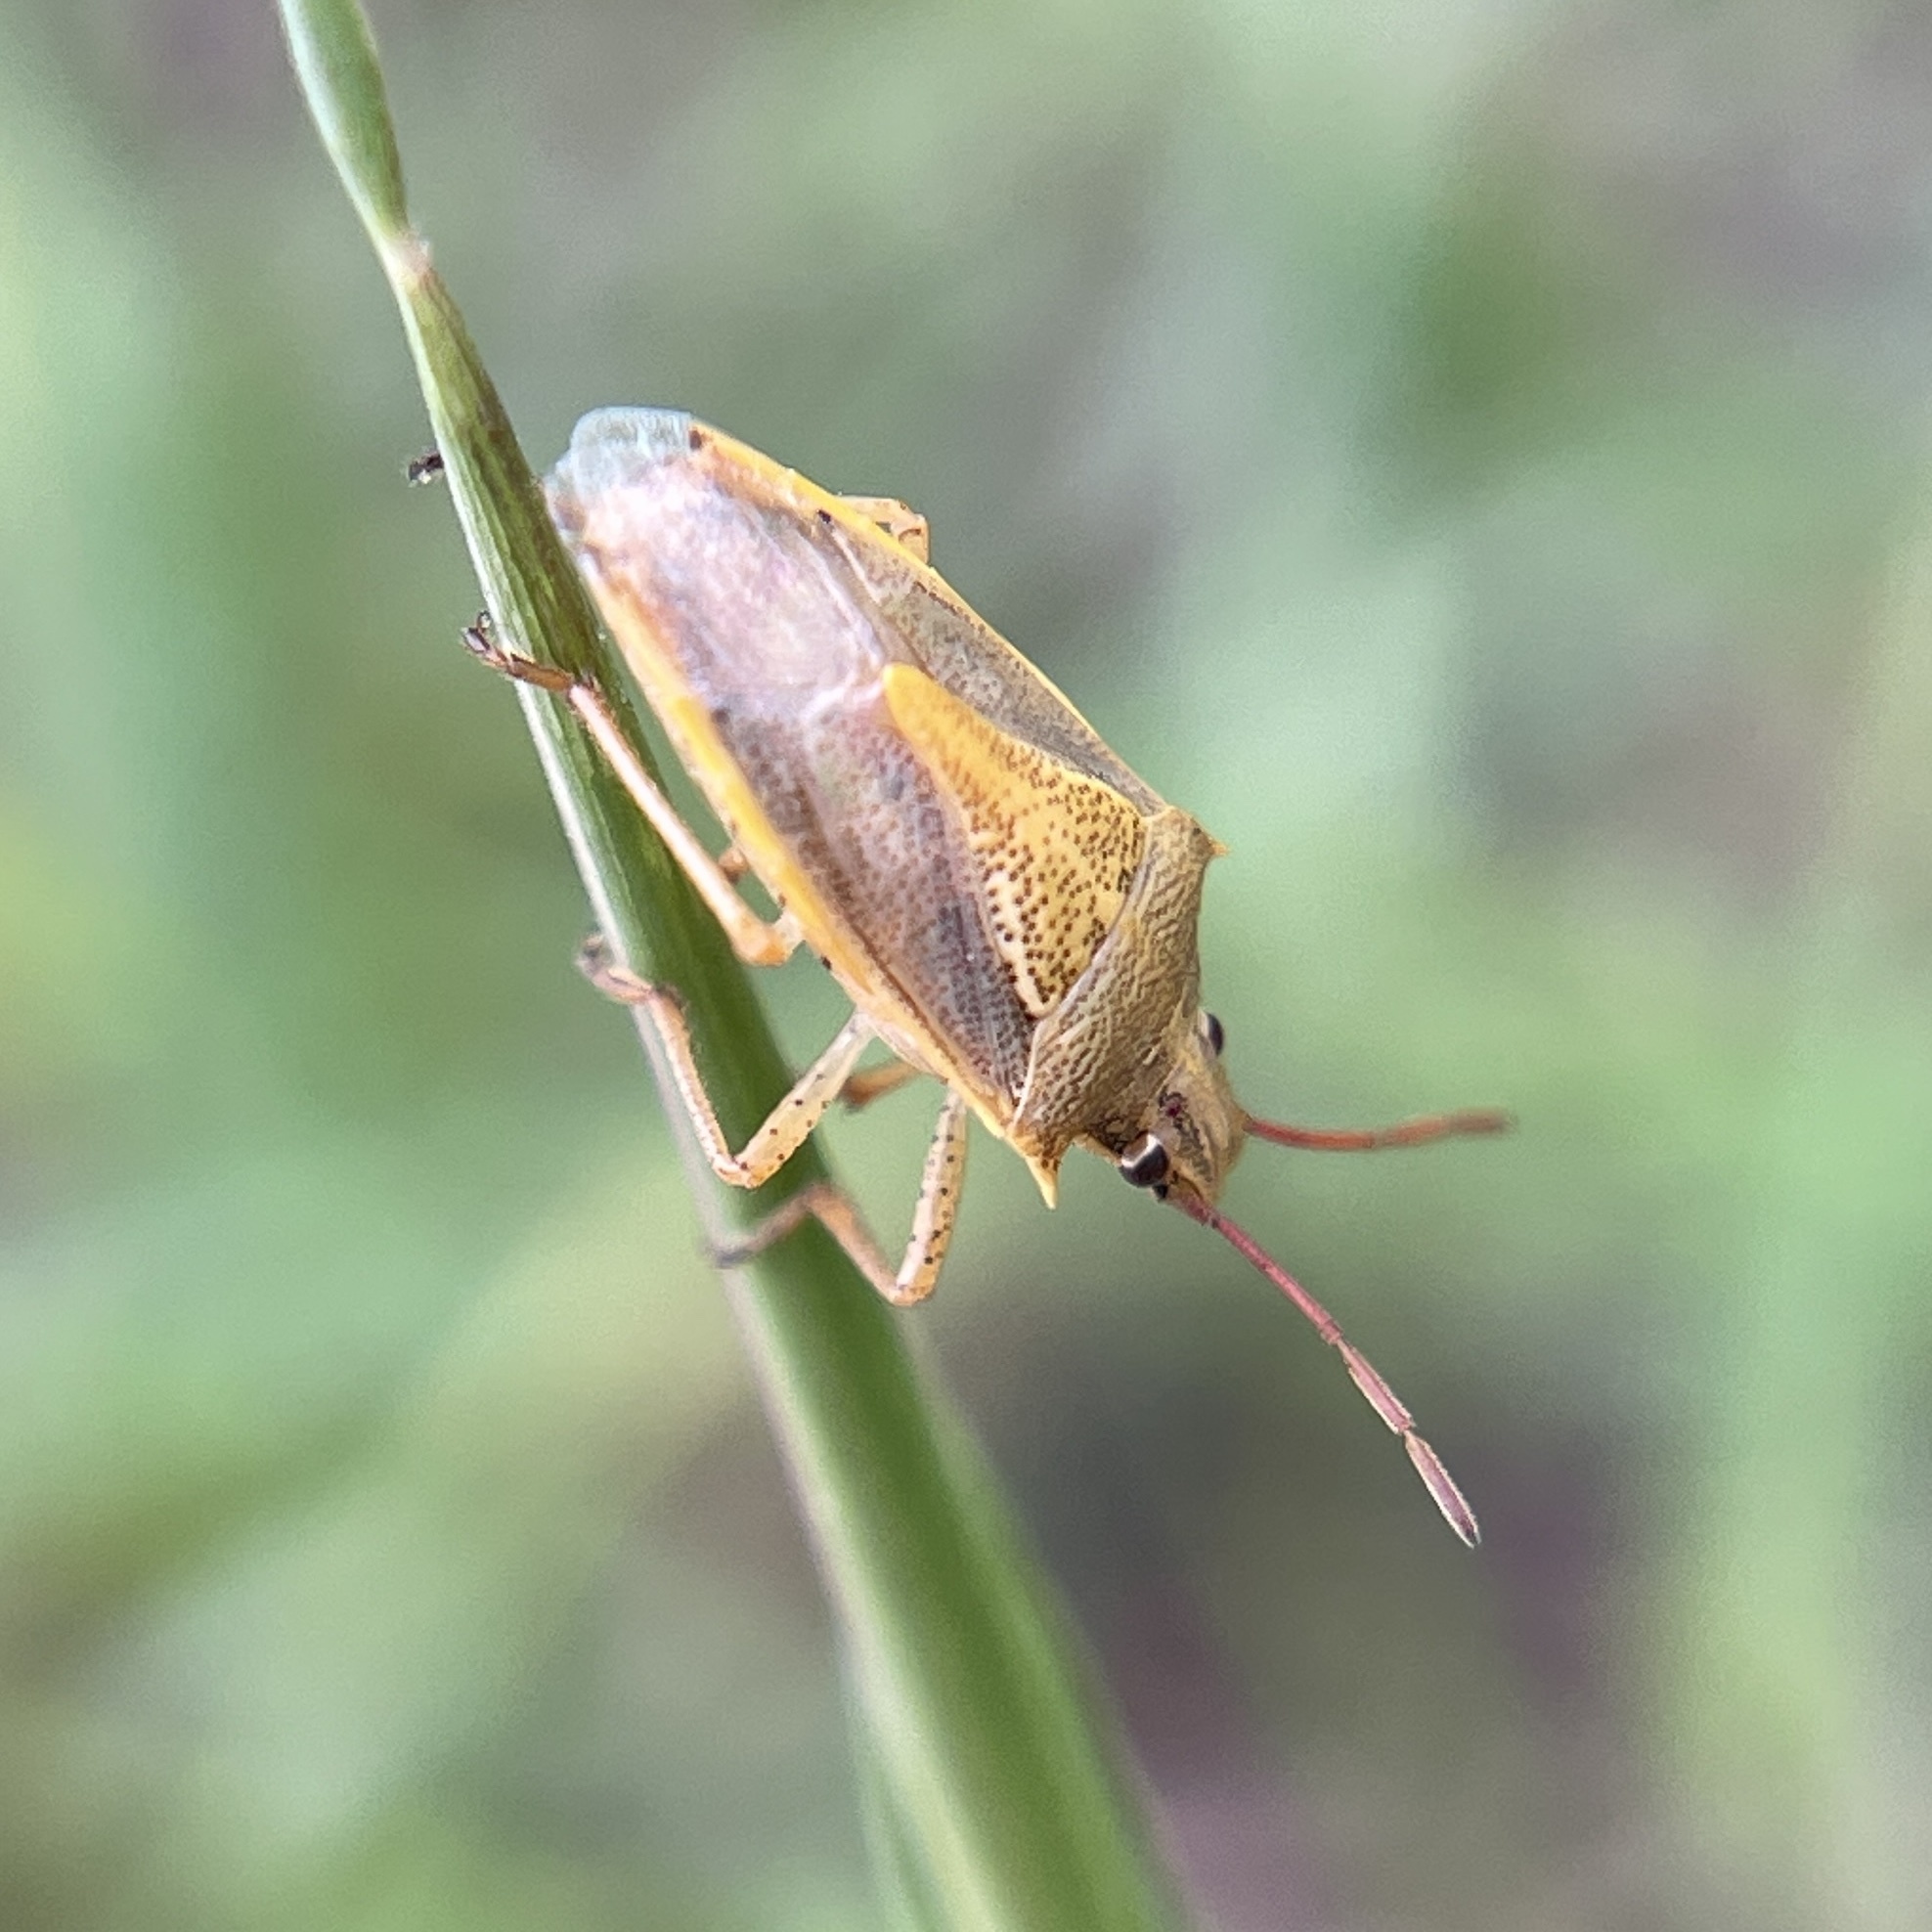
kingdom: Animalia
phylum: Arthropoda
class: Insecta
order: Hemiptera
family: Pentatomidae
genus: Oebalus
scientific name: Oebalus pugnax
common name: Rice stink bug
